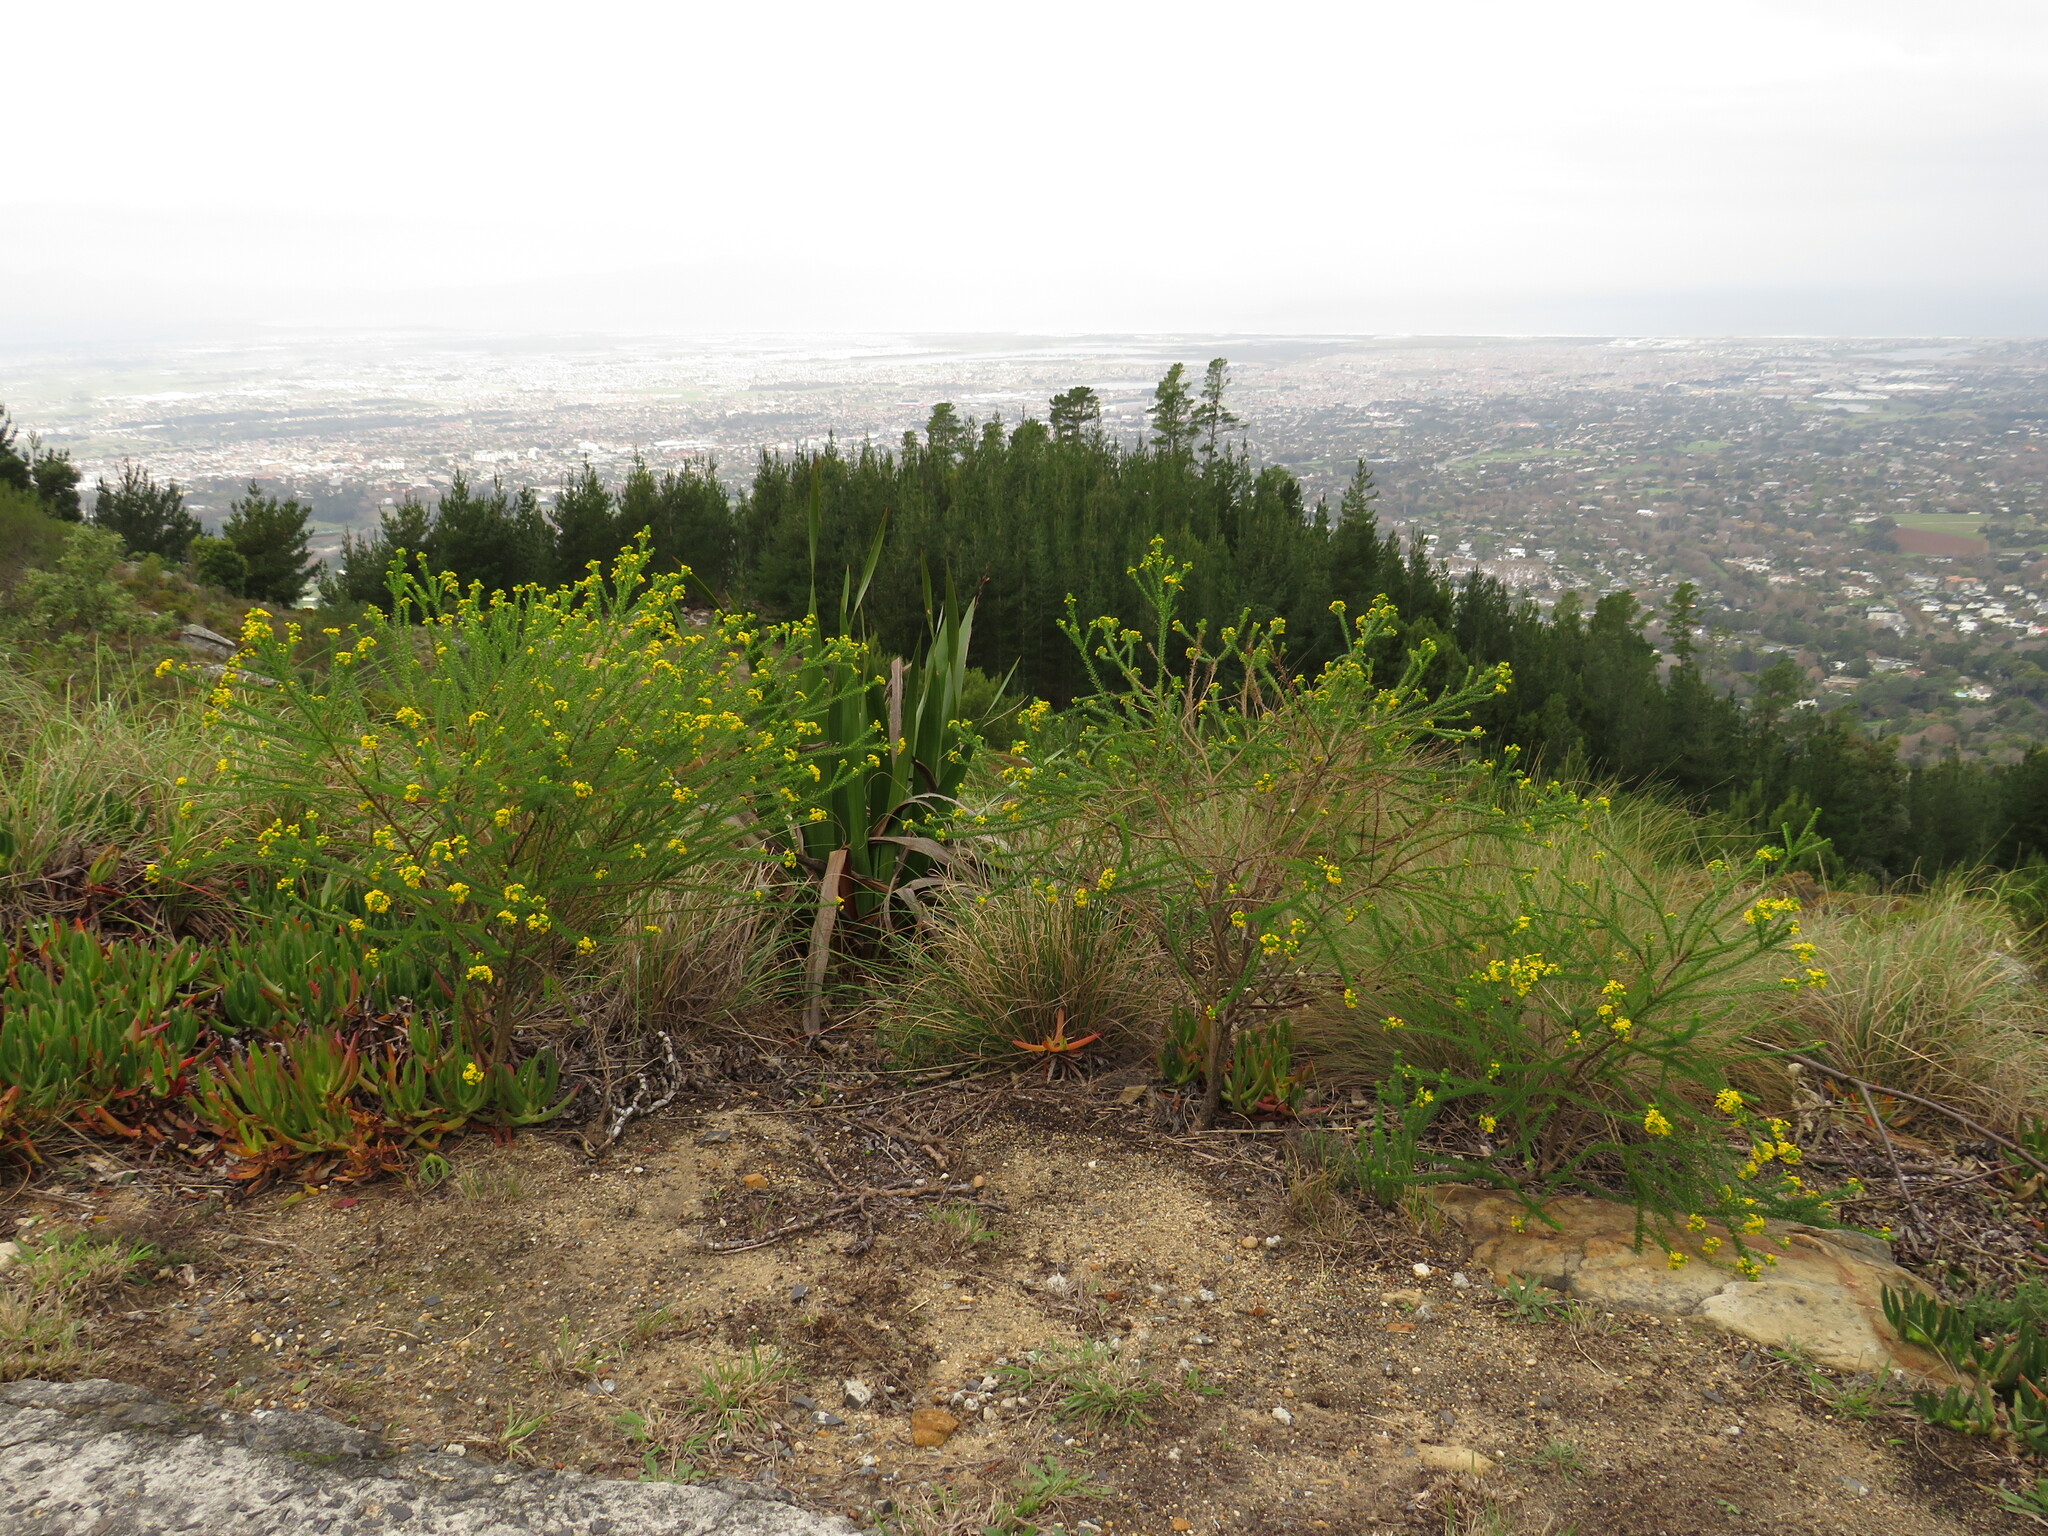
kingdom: Plantae
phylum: Tracheophyta
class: Magnoliopsida
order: Asterales
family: Asteraceae
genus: Euryops
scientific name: Euryops virgineus
